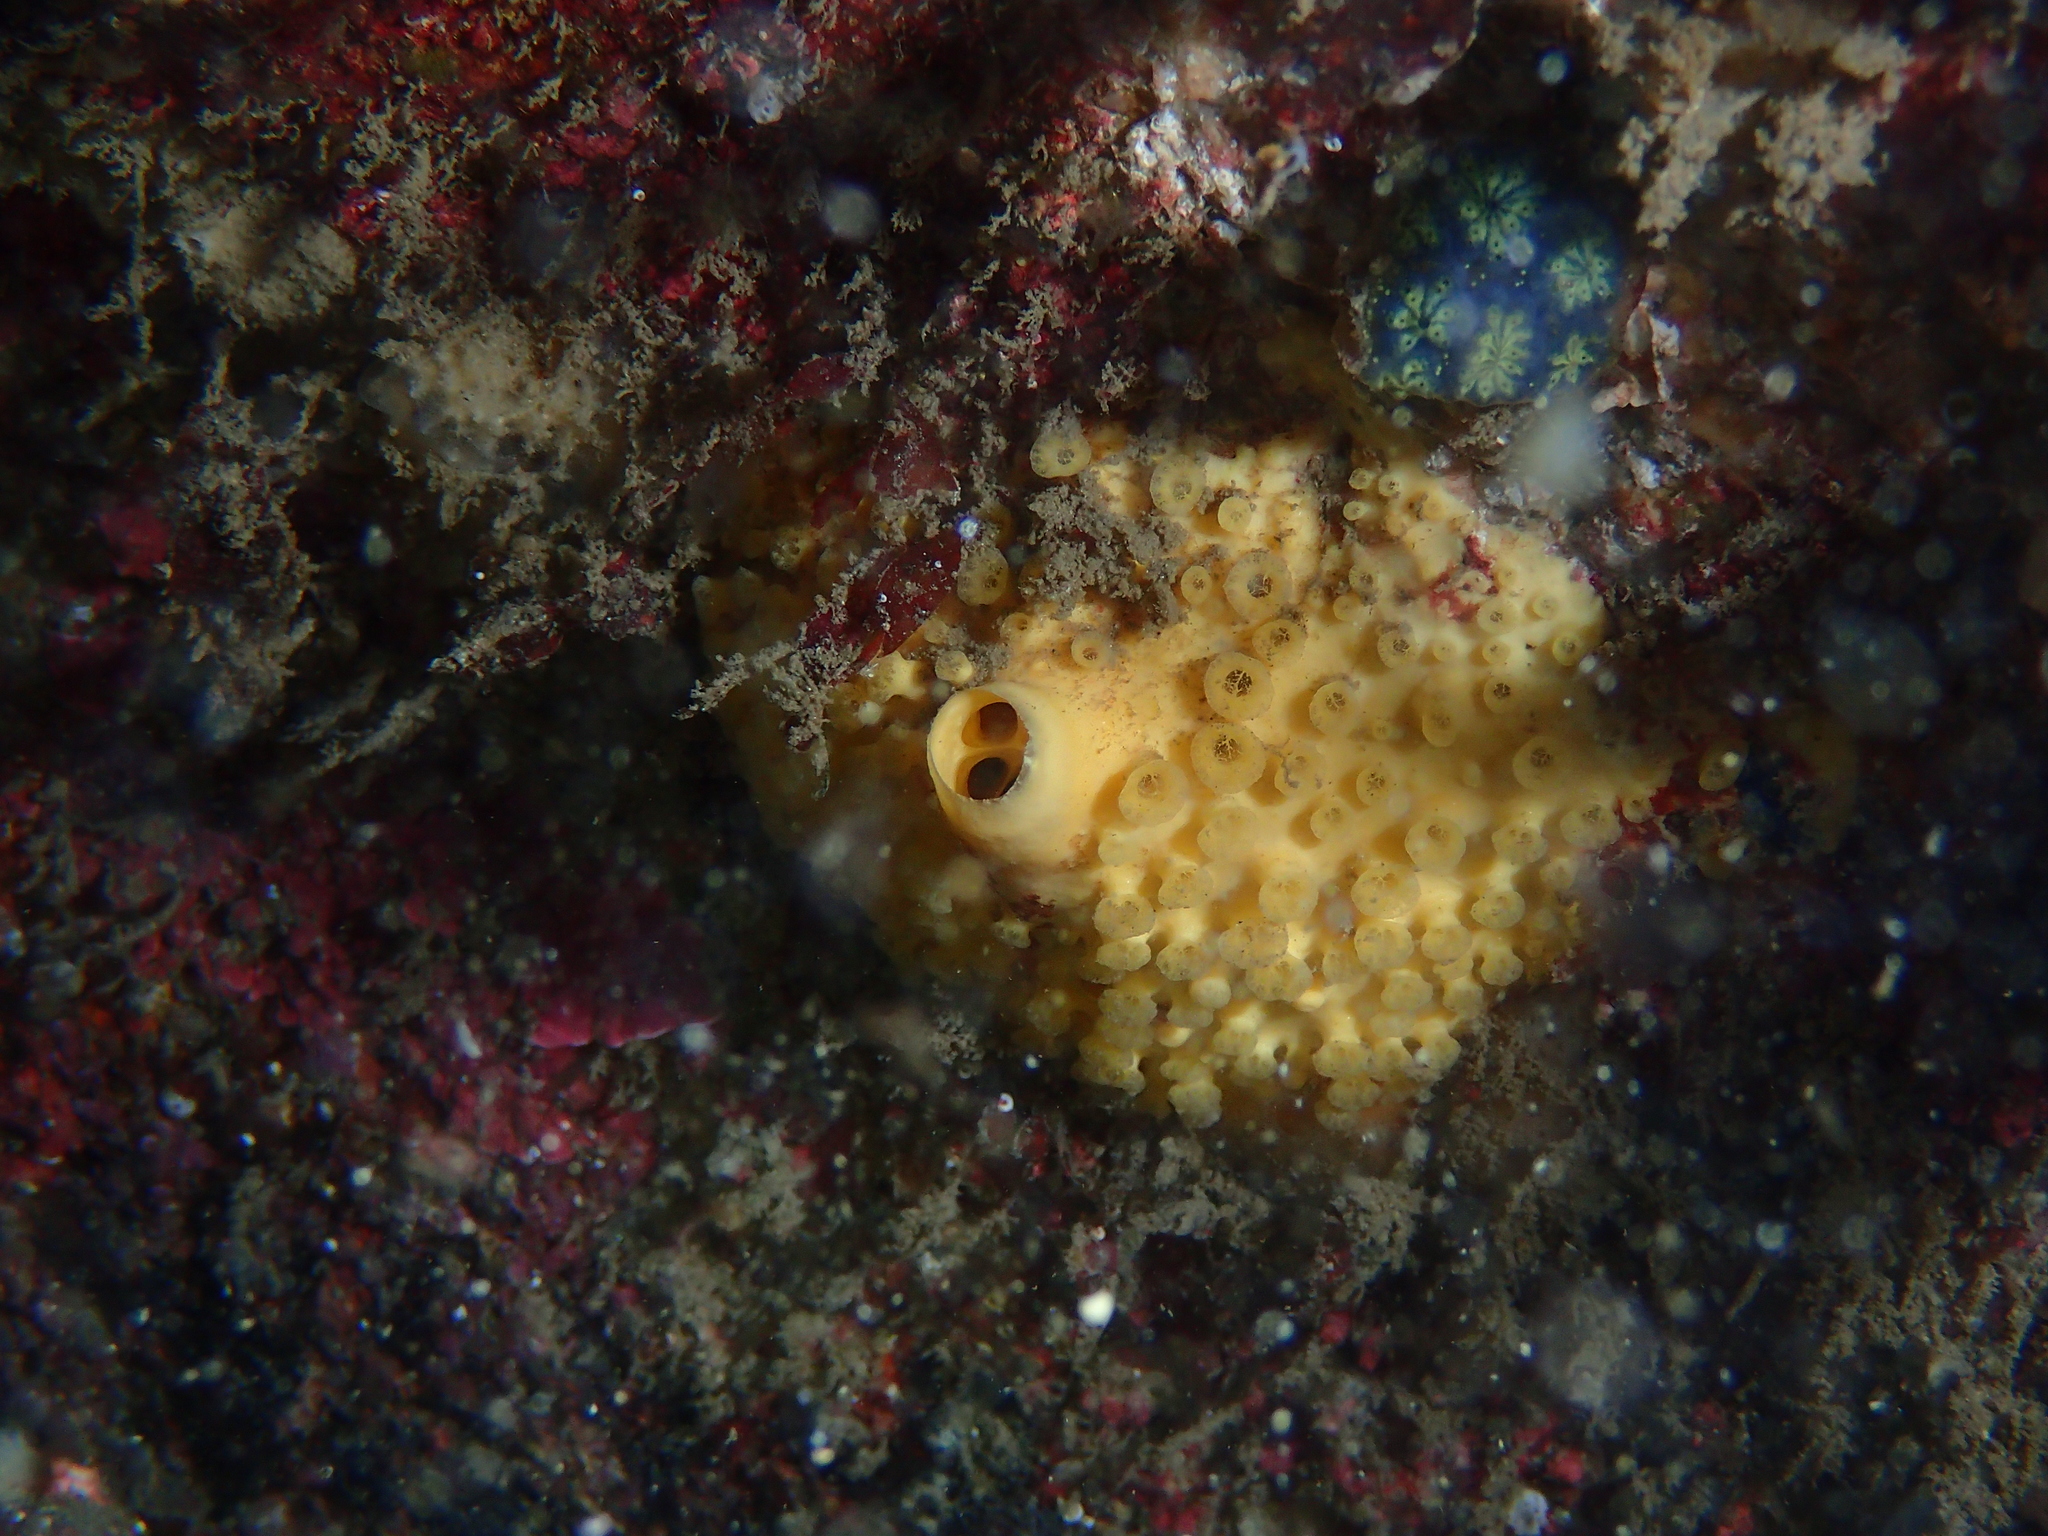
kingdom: Animalia
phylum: Porifera
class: Demospongiae
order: Clionaida
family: Clionaidae
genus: Cliona
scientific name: Cliona celata
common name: Boring sponge
